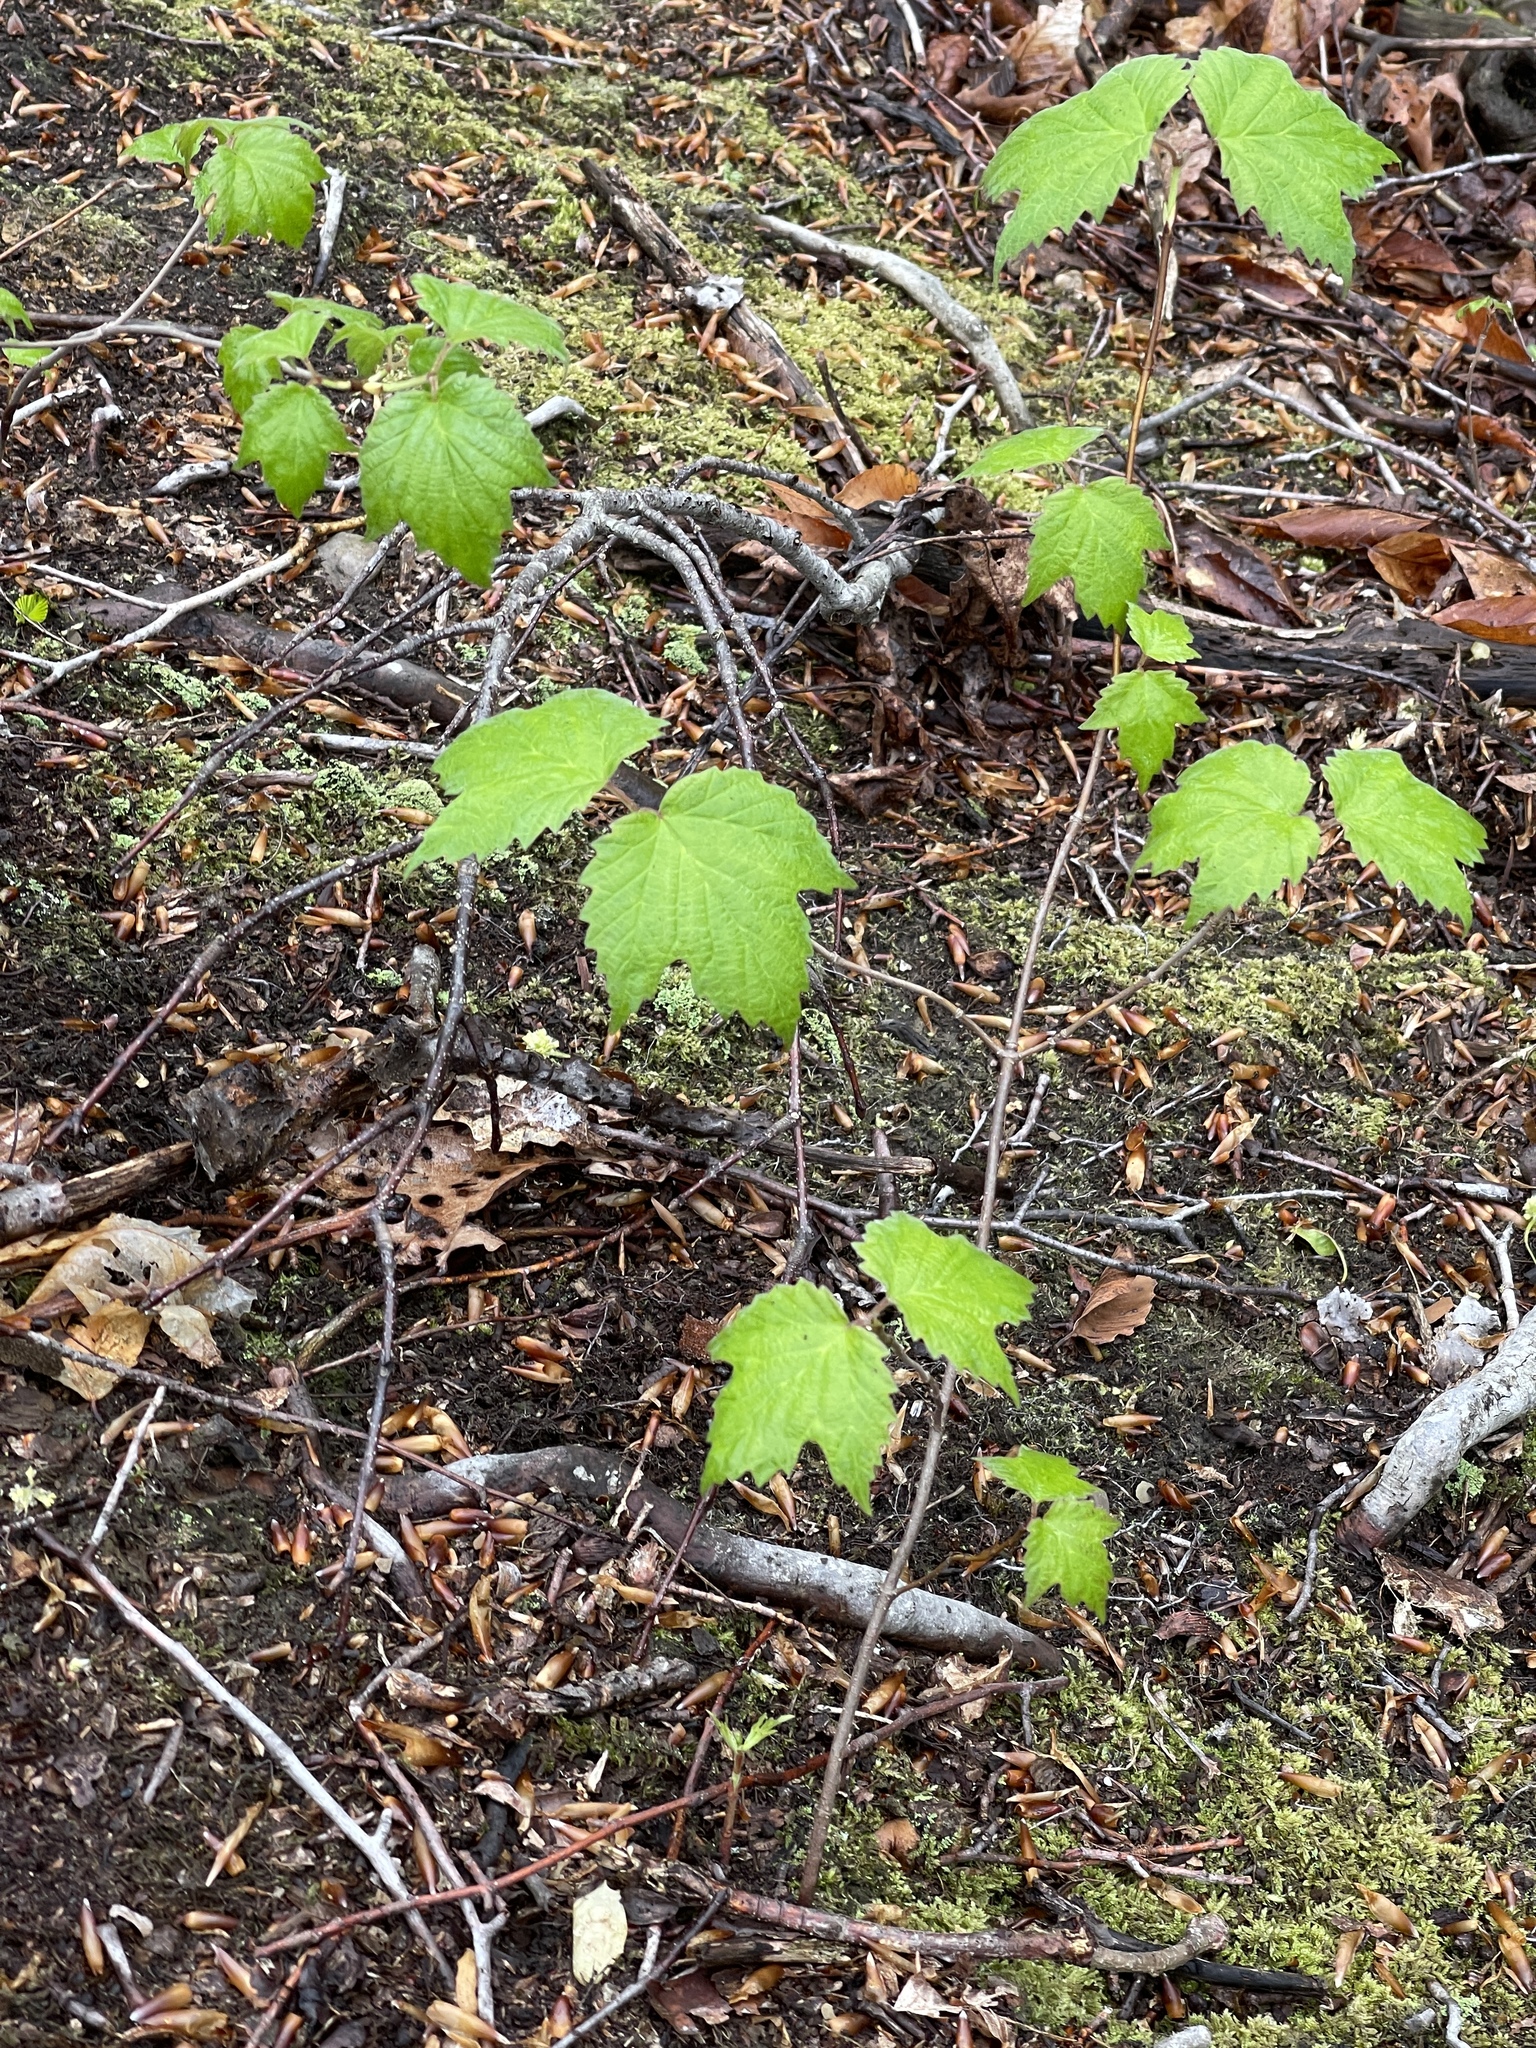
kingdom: Plantae
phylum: Tracheophyta
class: Magnoliopsida
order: Dipsacales
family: Viburnaceae
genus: Viburnum
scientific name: Viburnum acerifolium
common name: Dockmackie
